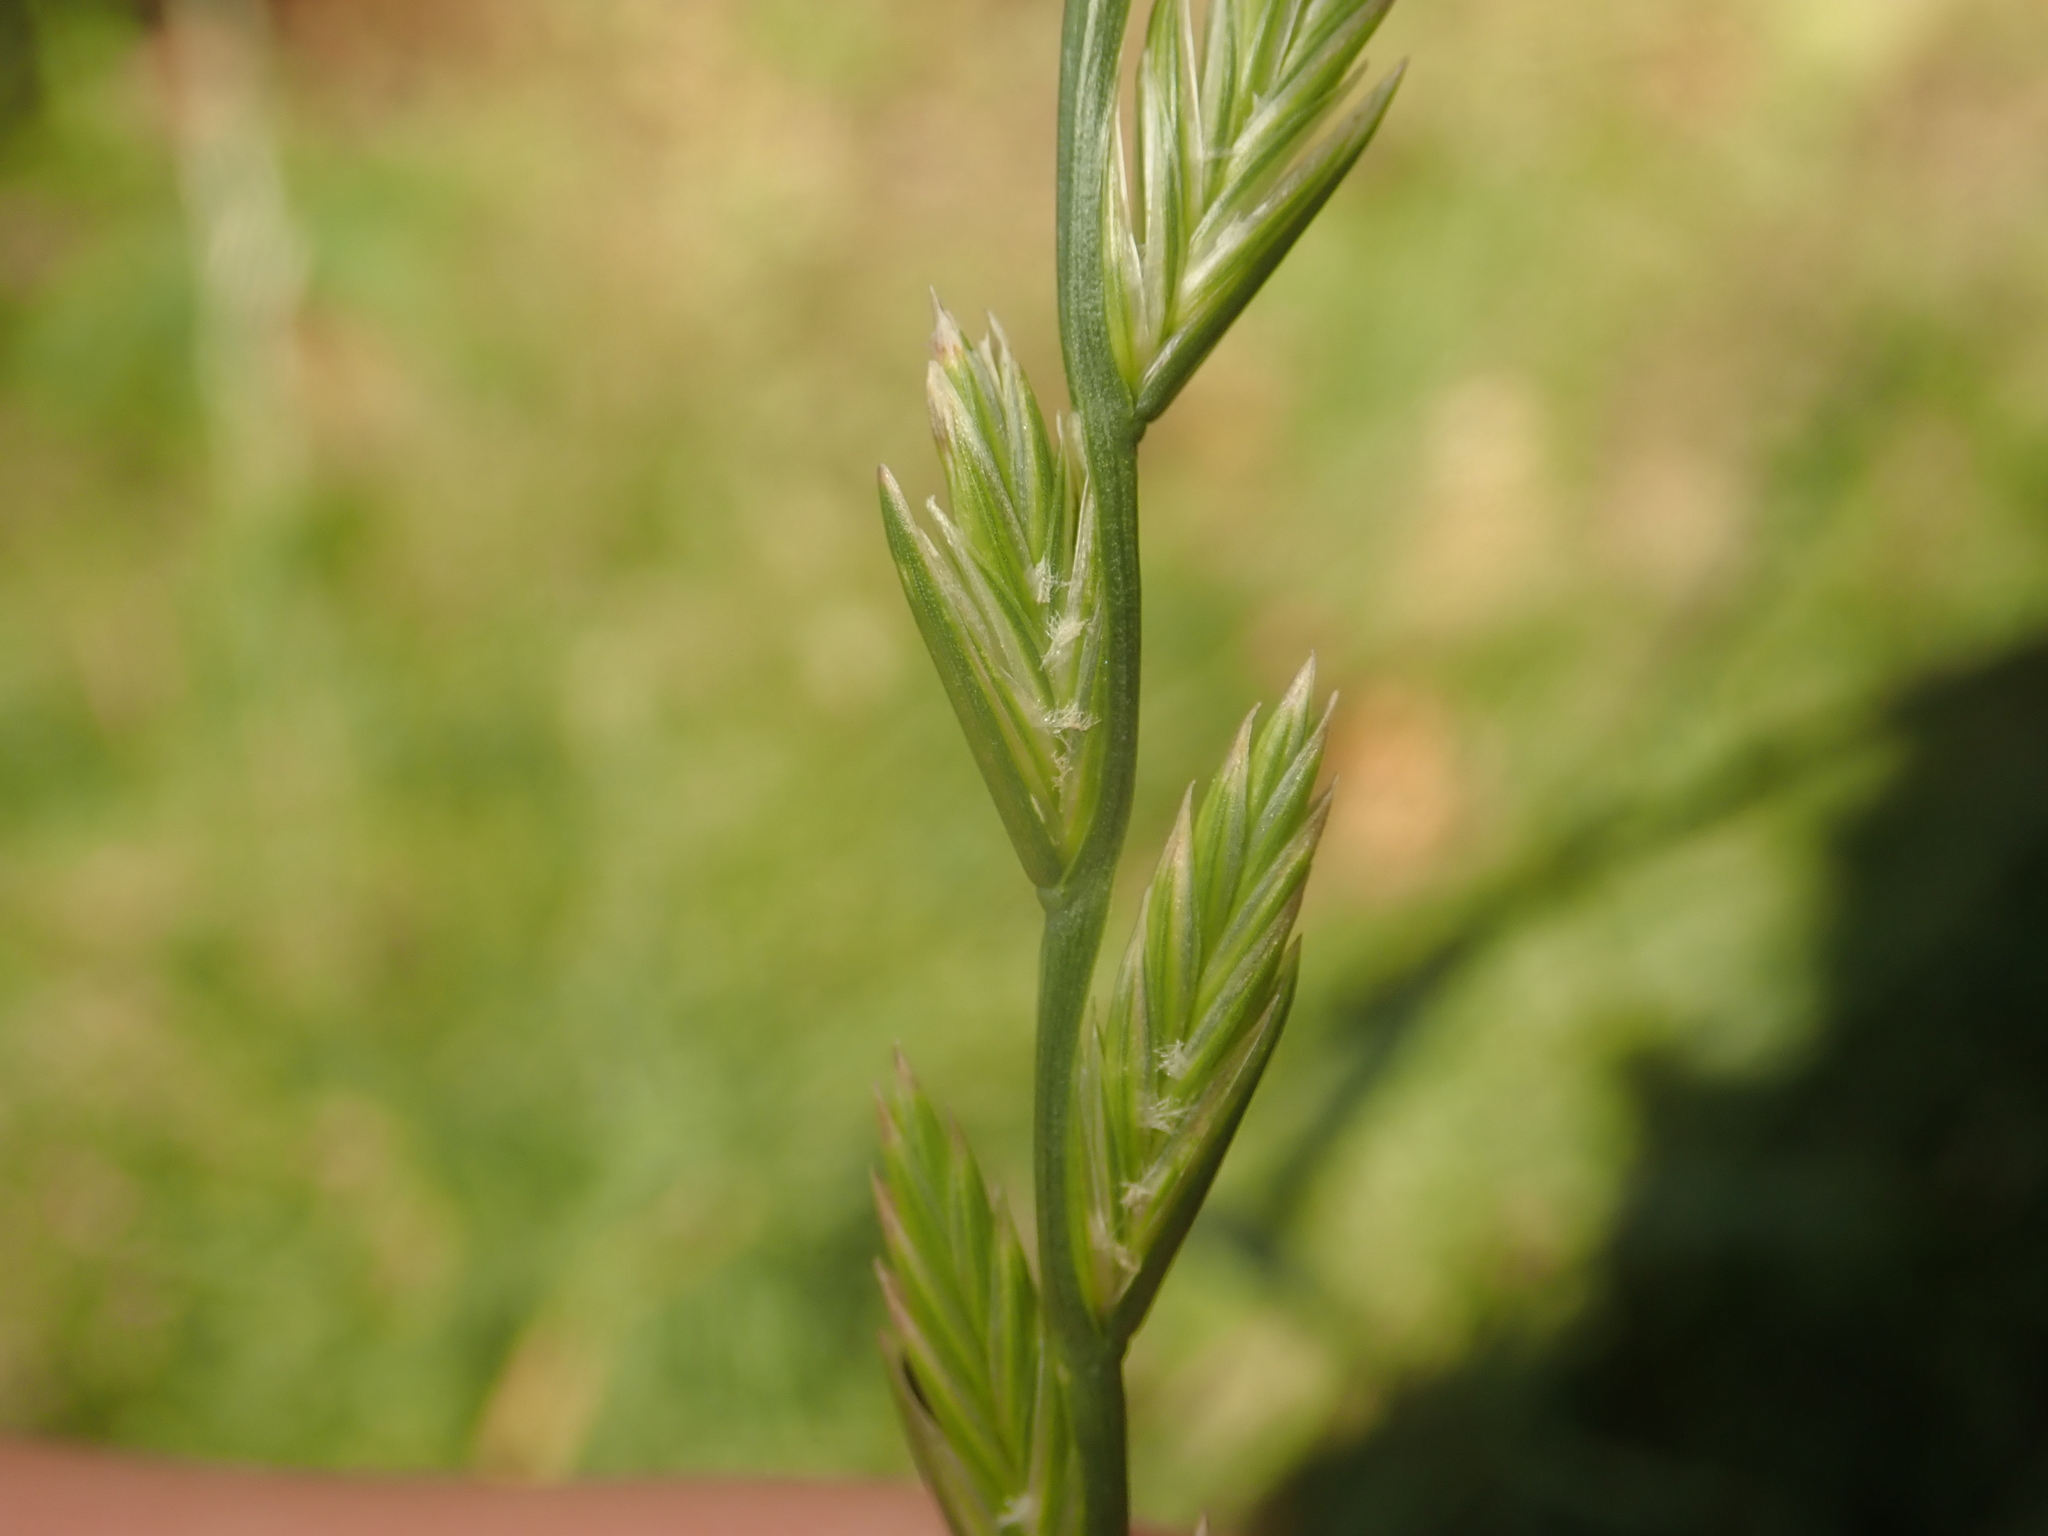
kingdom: Plantae
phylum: Tracheophyta
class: Liliopsida
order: Poales
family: Poaceae
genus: Lolium
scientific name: Lolium perenne
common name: Perennial ryegrass
